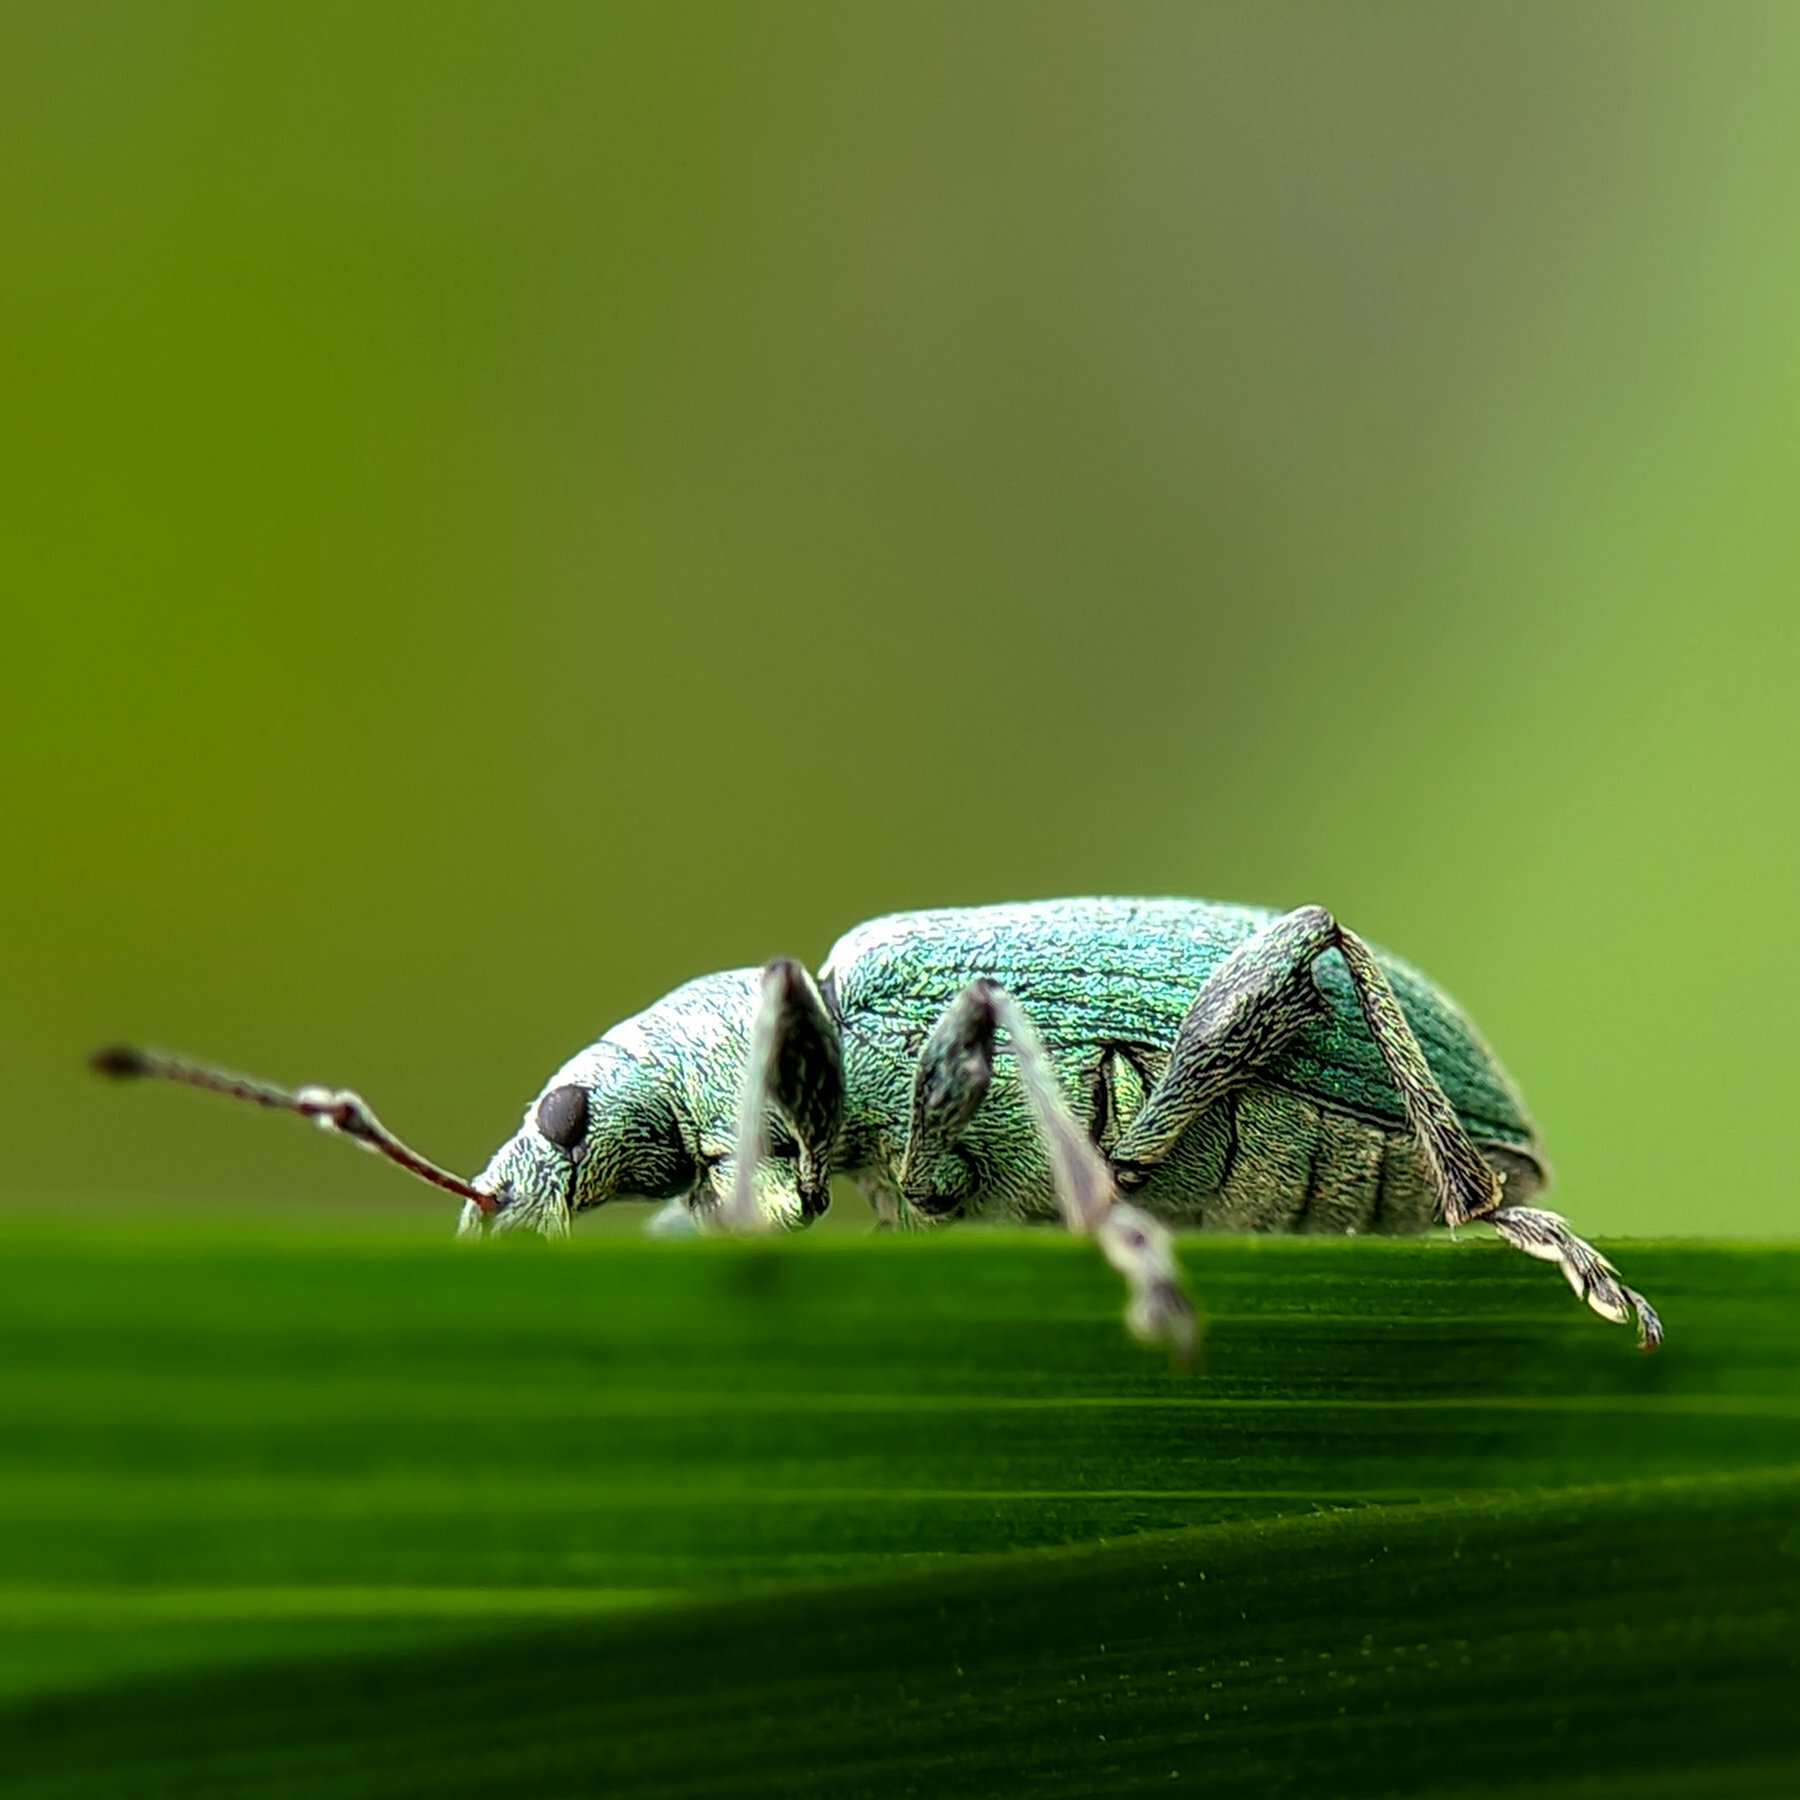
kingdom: Animalia
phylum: Arthropoda
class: Insecta
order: Coleoptera
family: Curculionidae
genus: Phyllobius
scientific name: Phyllobius pomaceus
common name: Green nettle weevil
